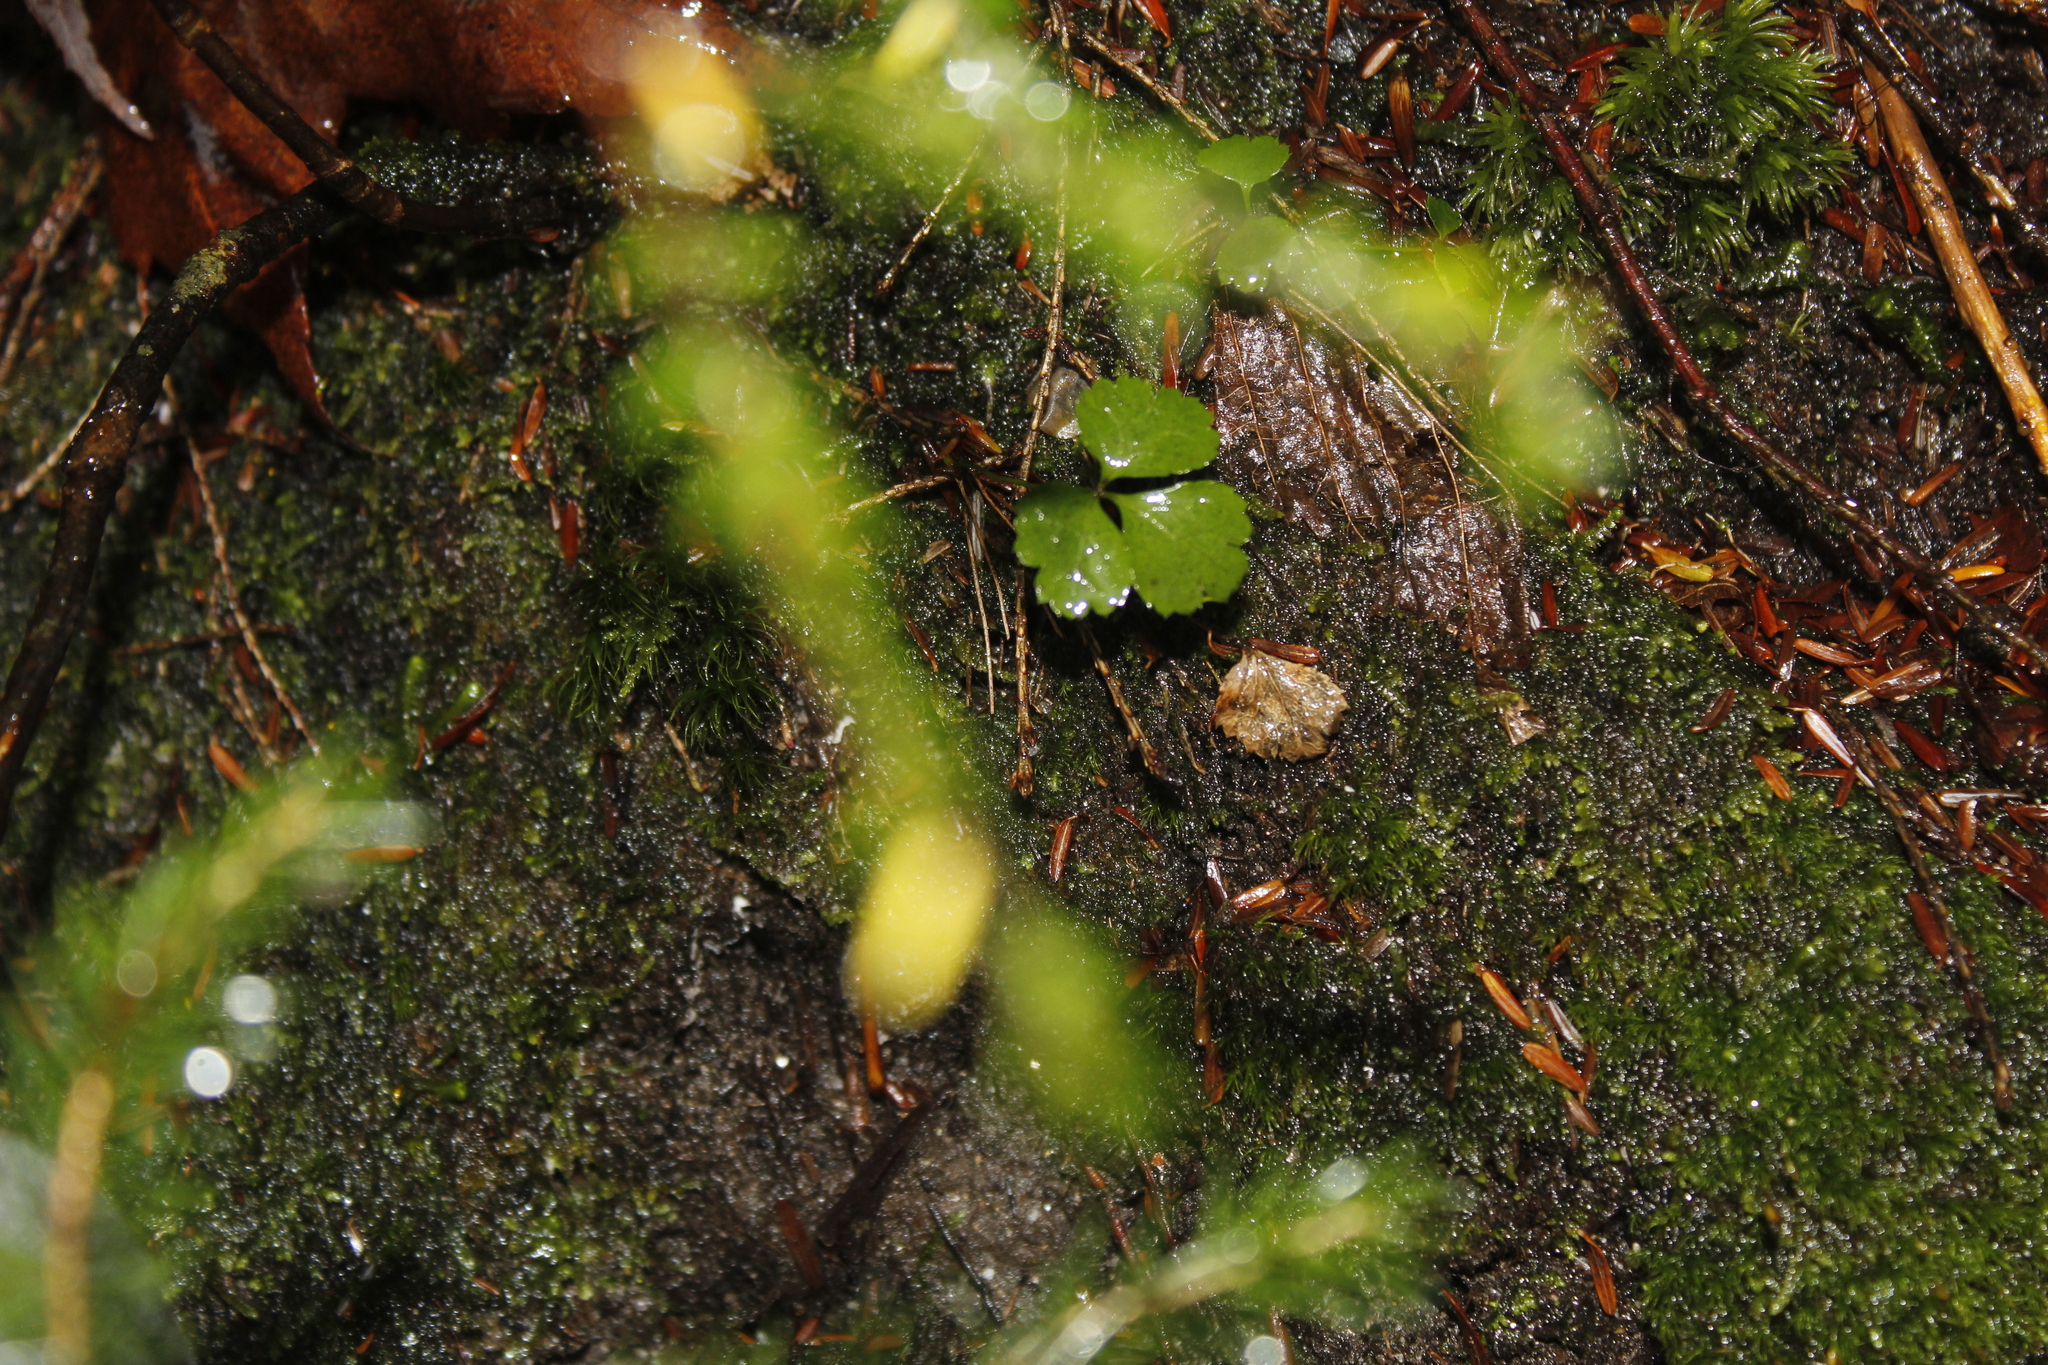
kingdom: Plantae
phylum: Tracheophyta
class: Magnoliopsida
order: Ranunculales
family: Ranunculaceae
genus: Coptis
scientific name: Coptis trifolia
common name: Canker-root
